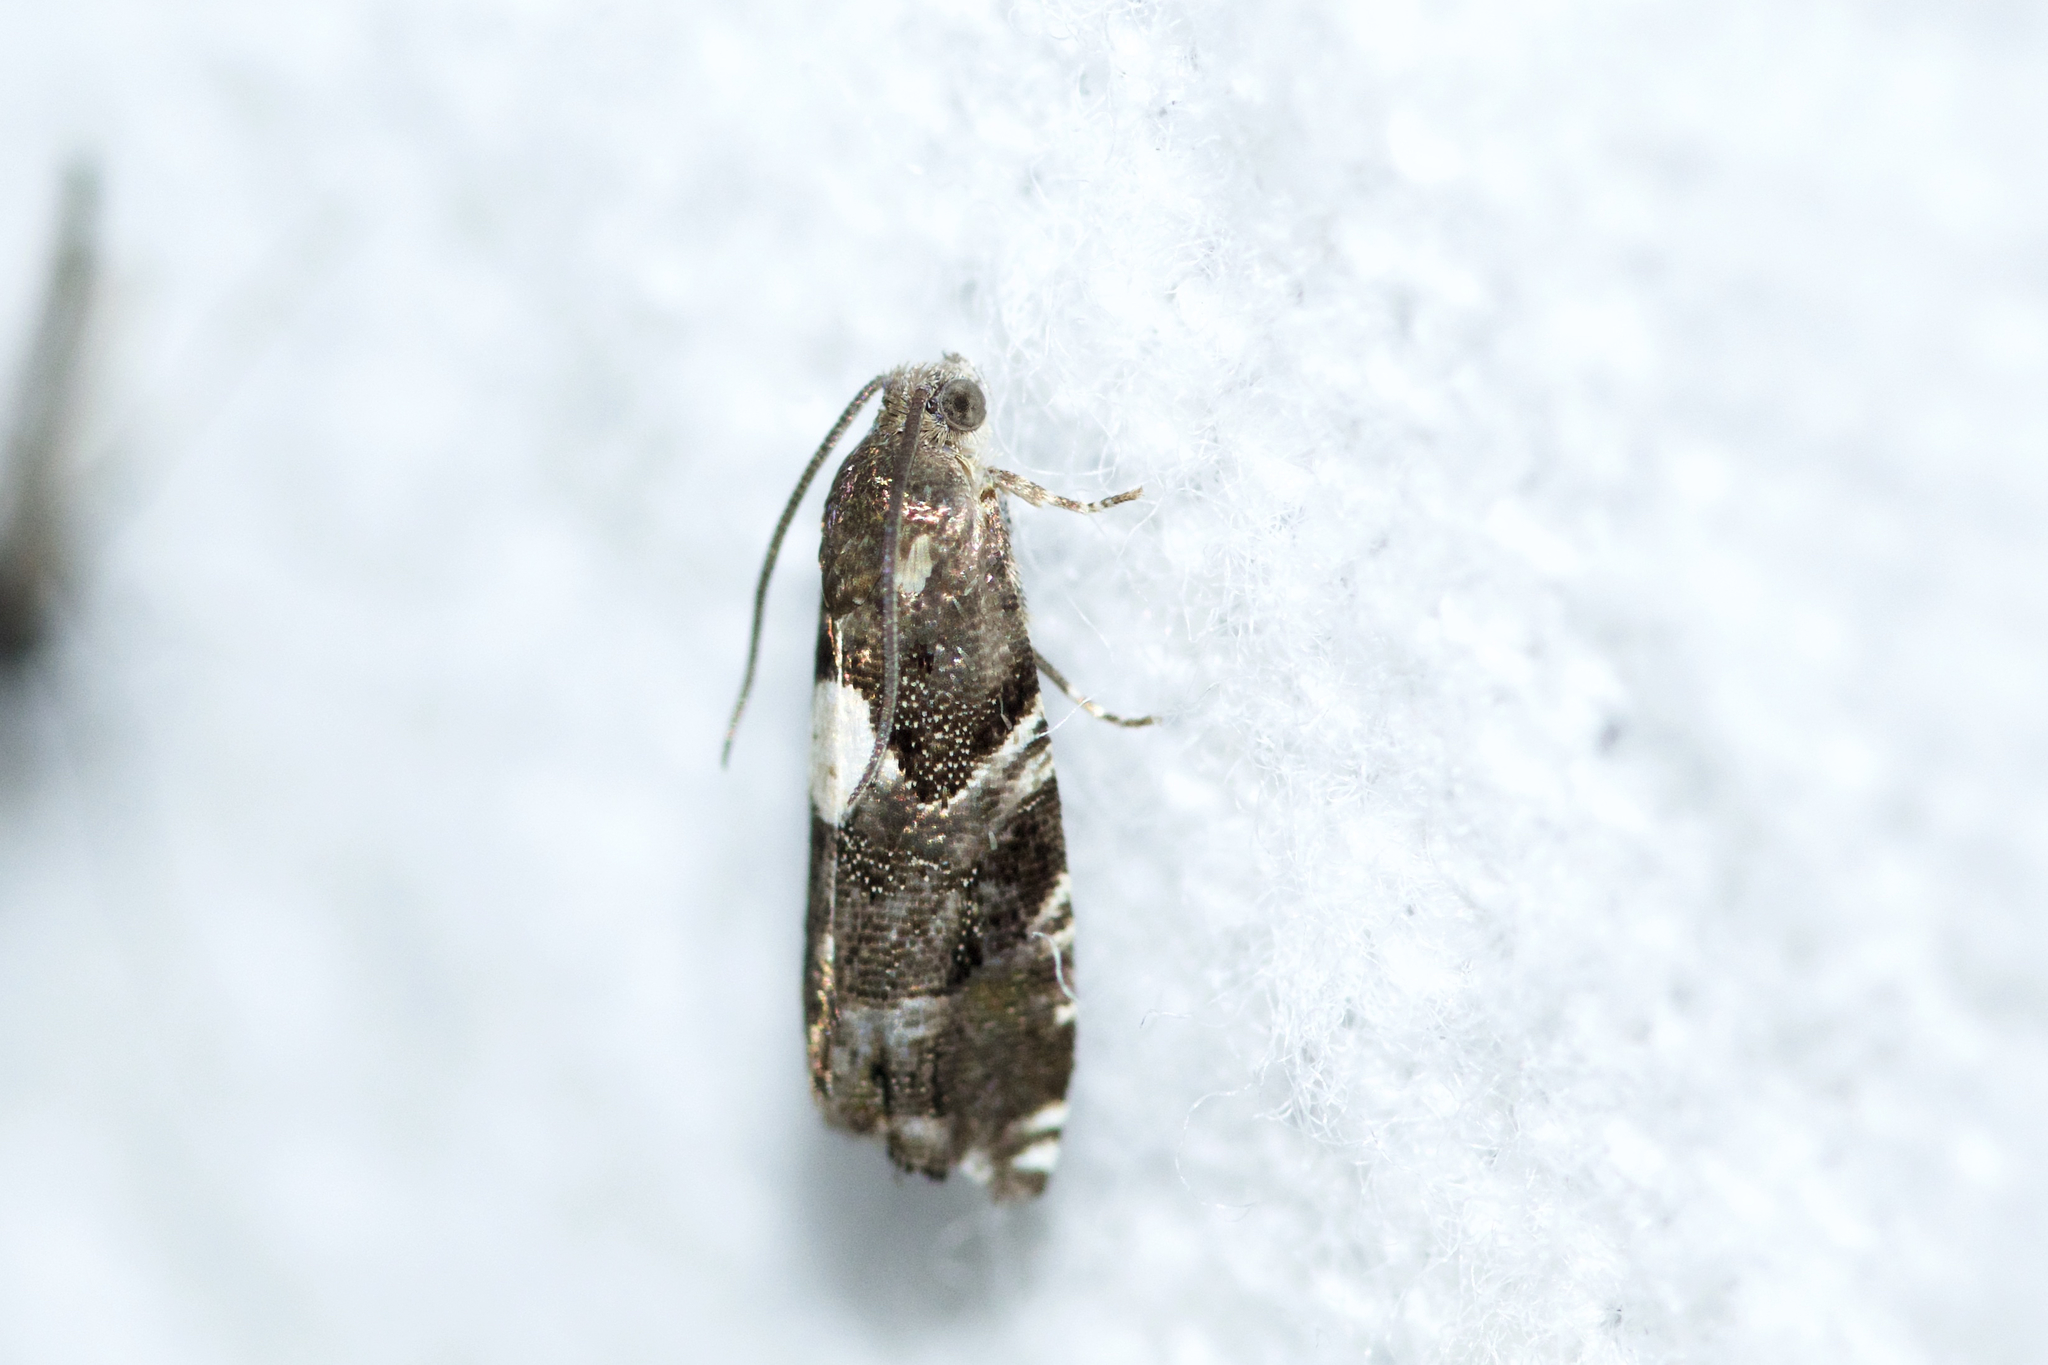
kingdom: Animalia
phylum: Arthropoda
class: Insecta
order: Lepidoptera
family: Tortricidae
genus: Cydia
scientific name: Cydia albimaculana
